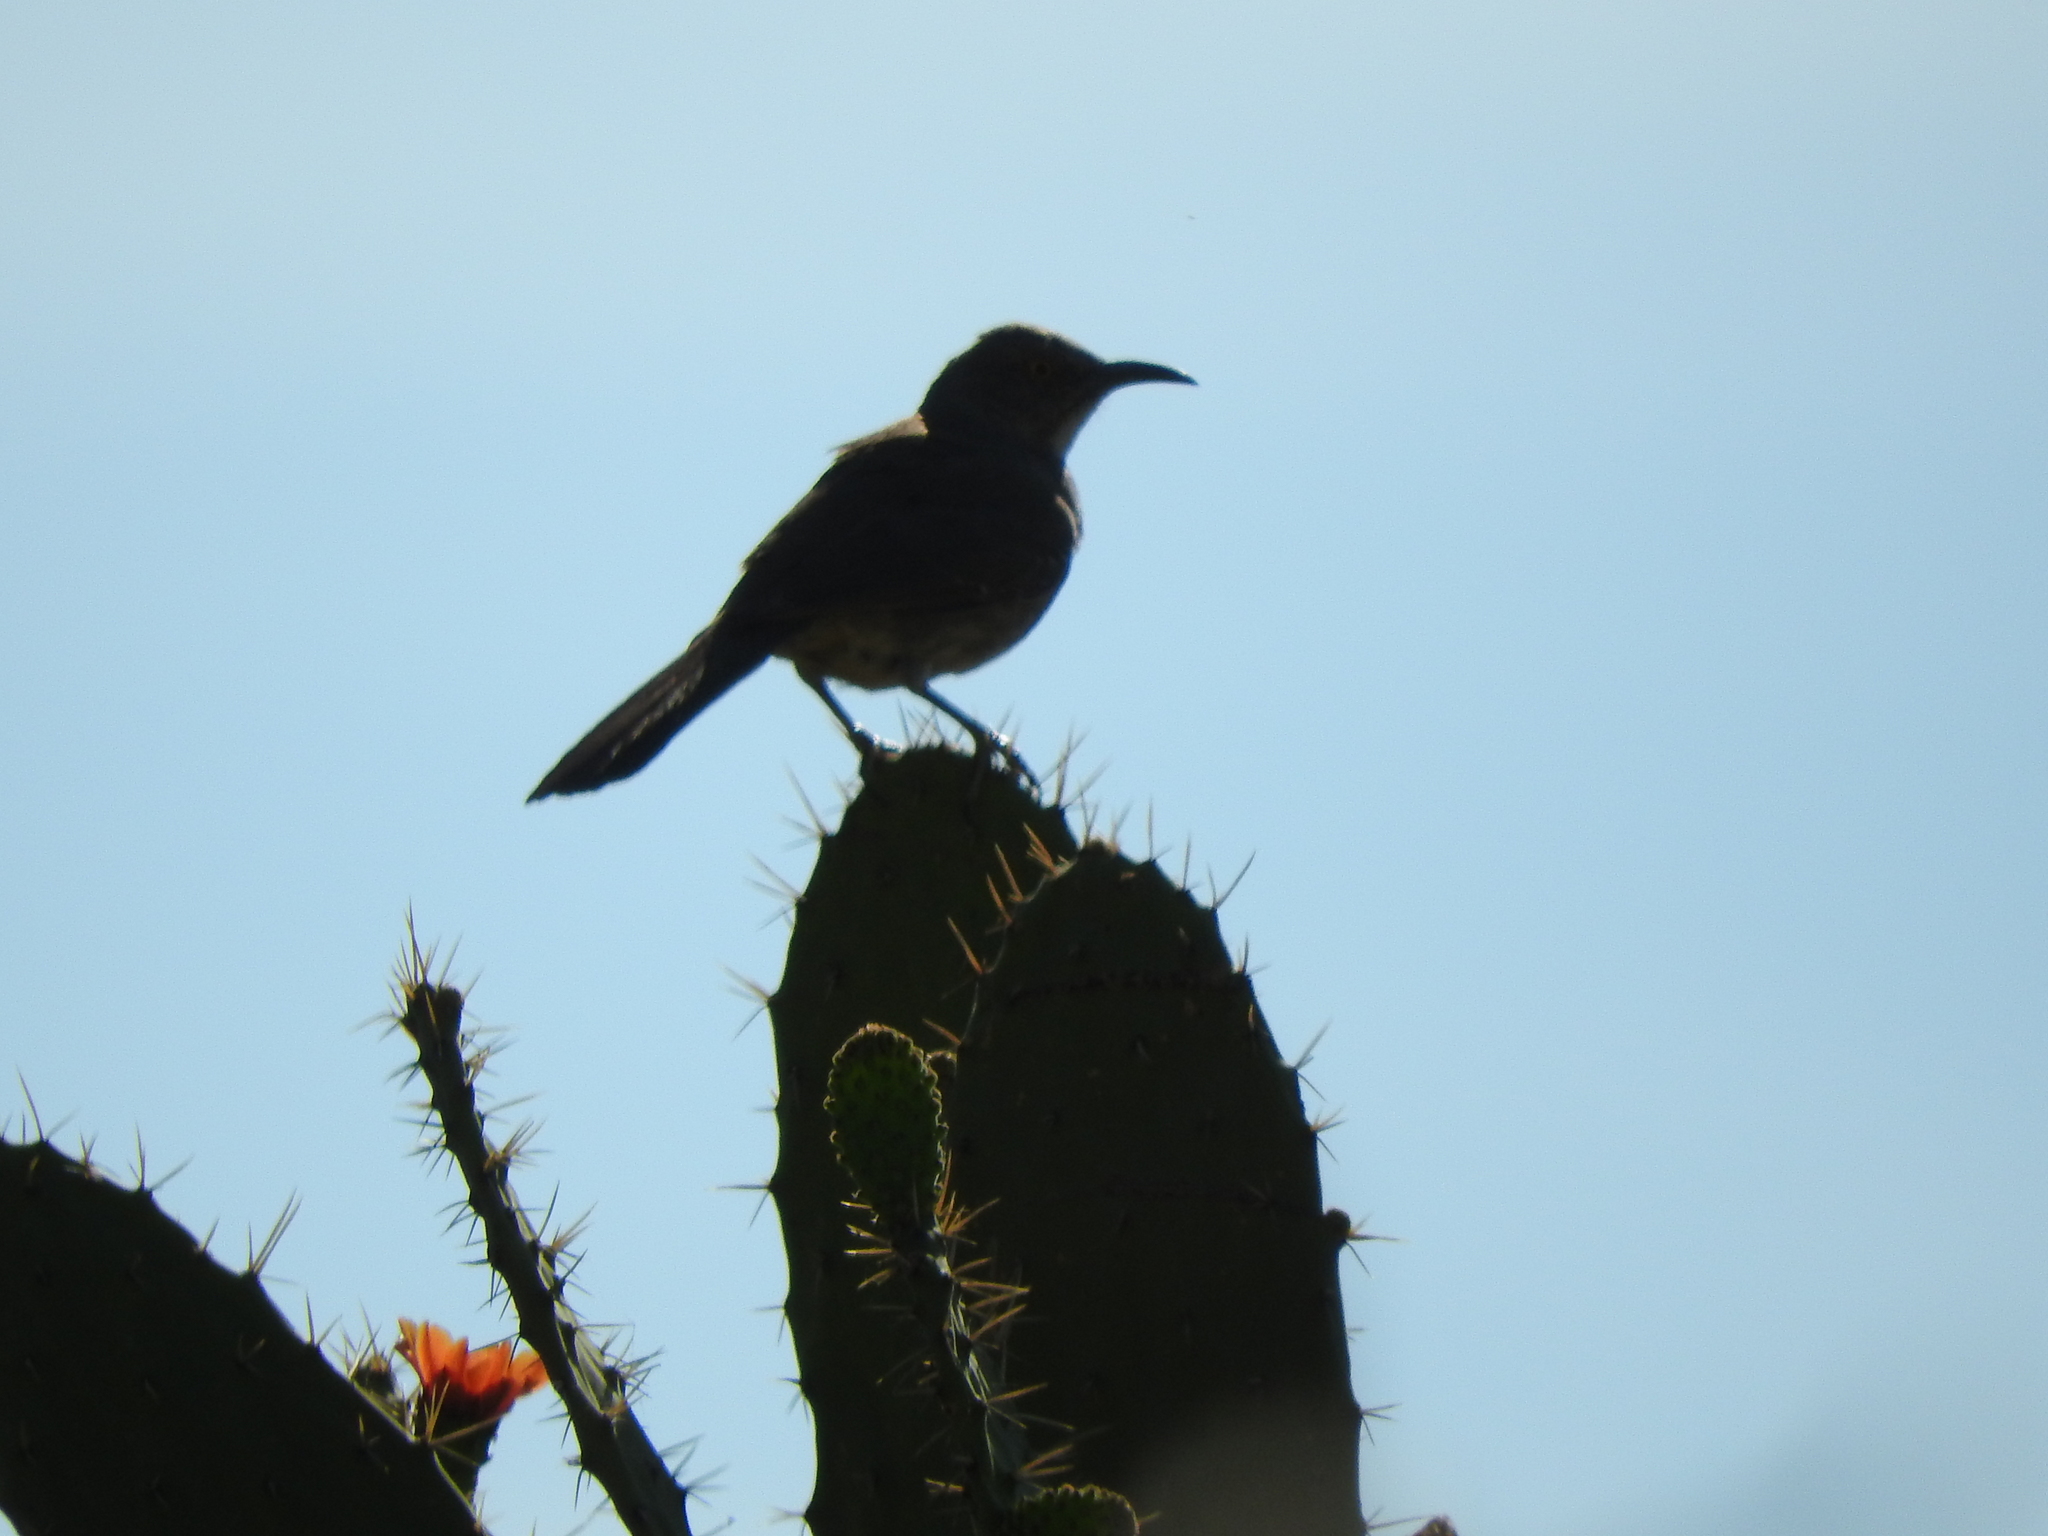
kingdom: Animalia
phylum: Chordata
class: Aves
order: Passeriformes
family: Mimidae
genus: Toxostoma
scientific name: Toxostoma curvirostre
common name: Curve-billed thrasher
